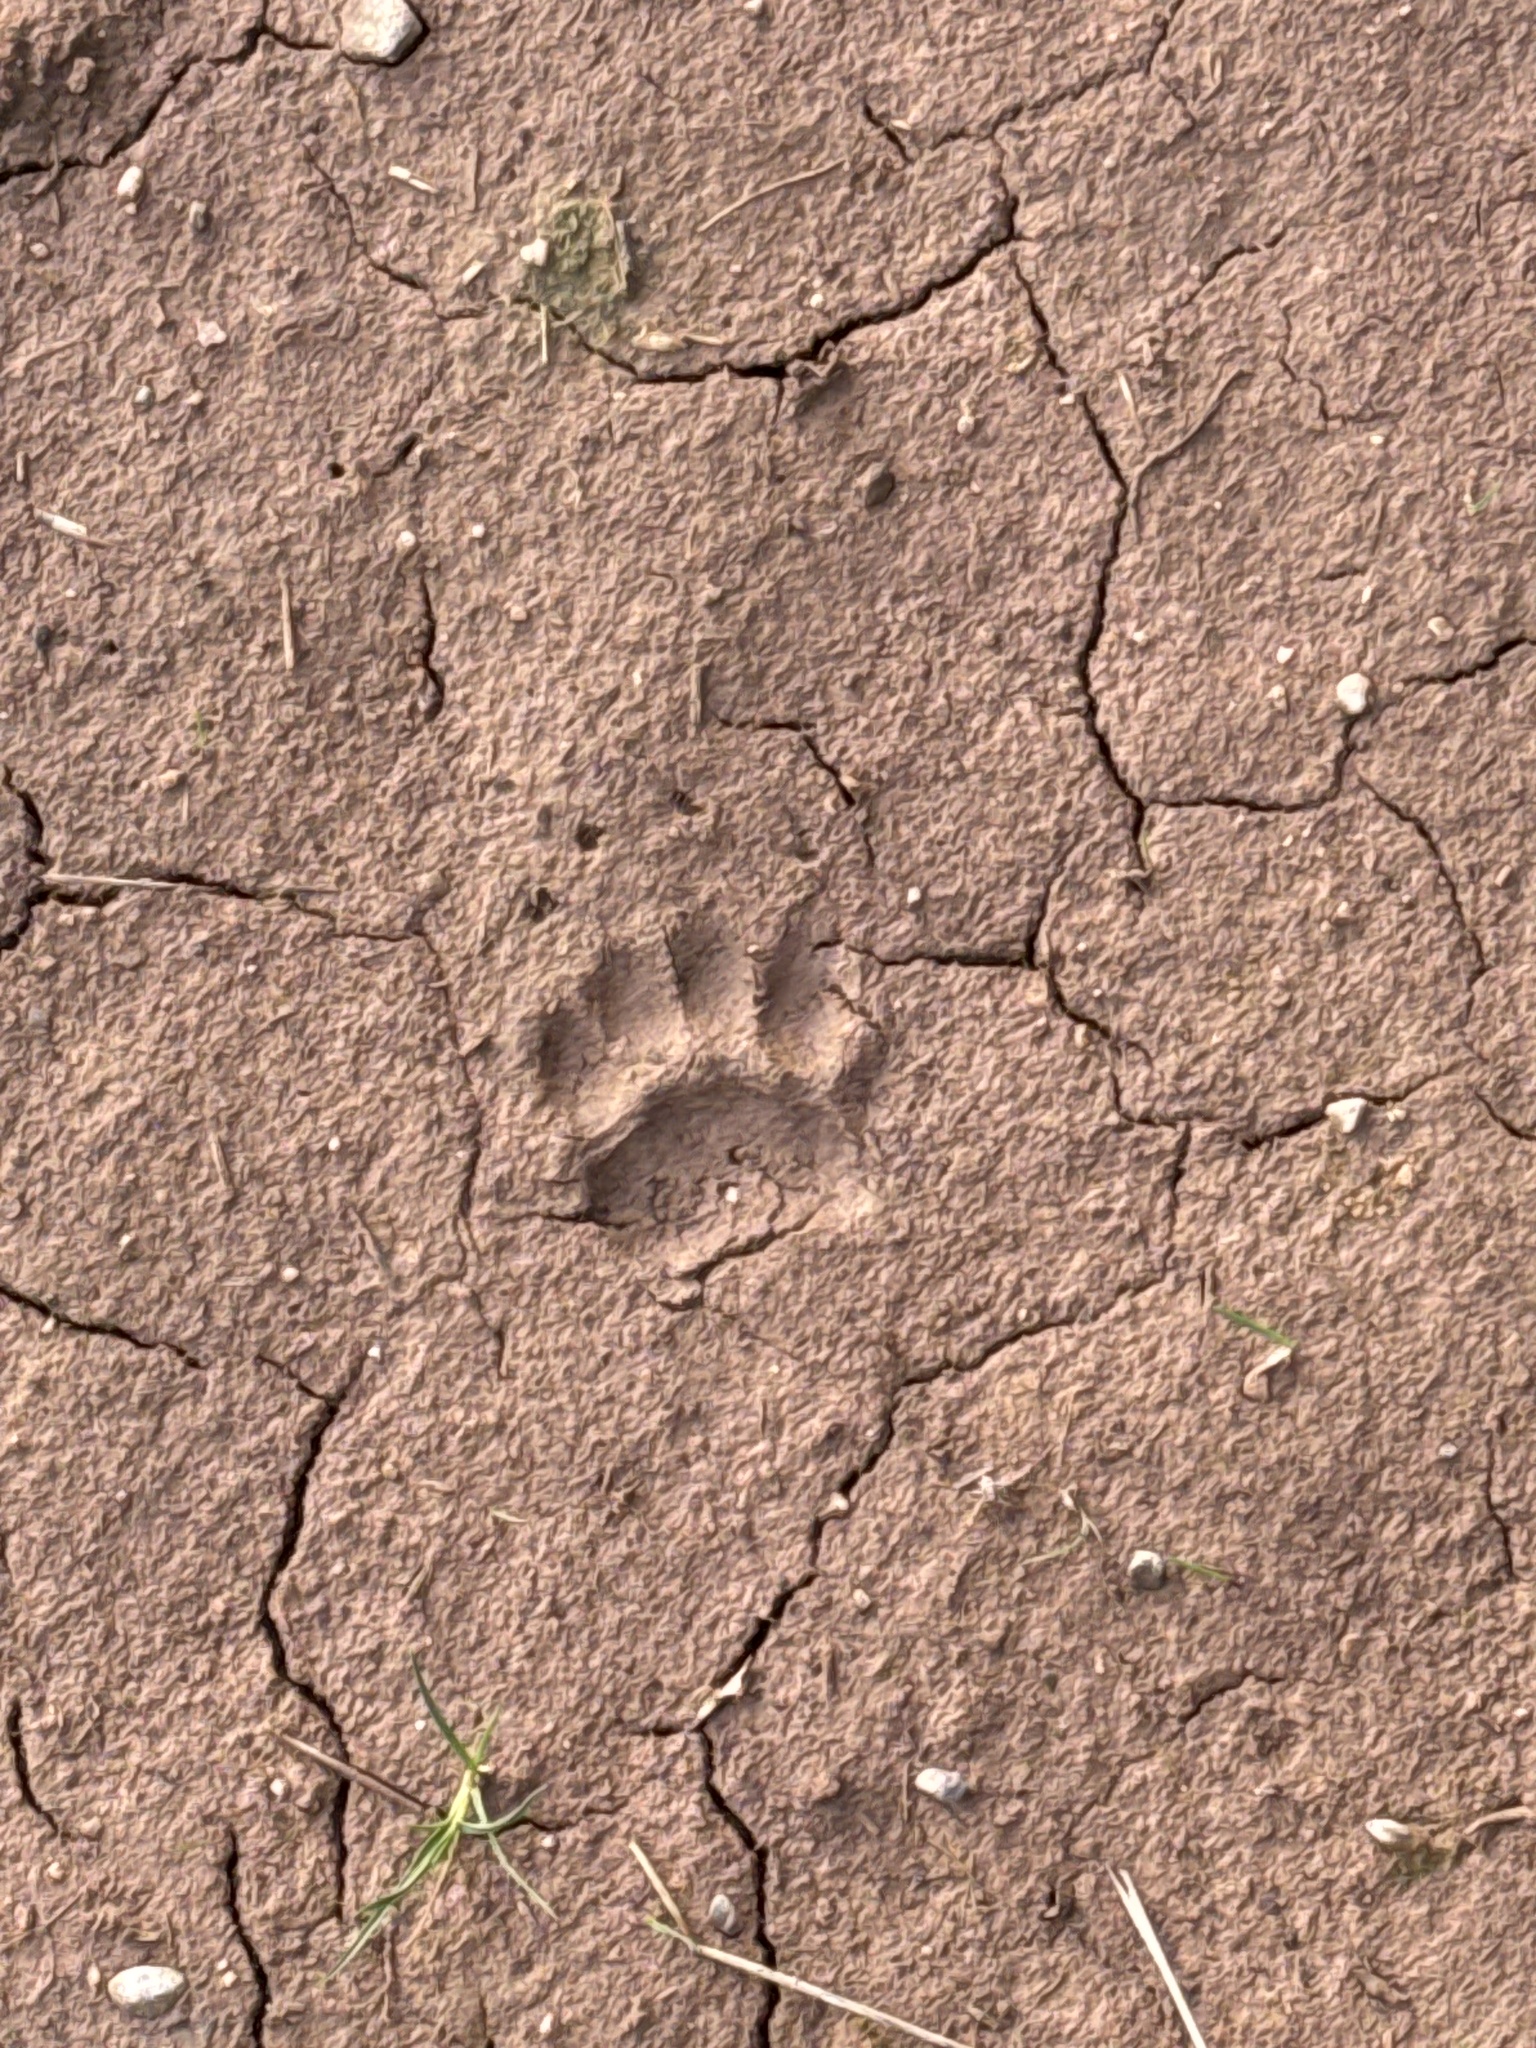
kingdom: Animalia
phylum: Chordata
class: Mammalia
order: Carnivora
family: Mustelidae
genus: Meles
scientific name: Meles meles
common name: Eurasian badger
